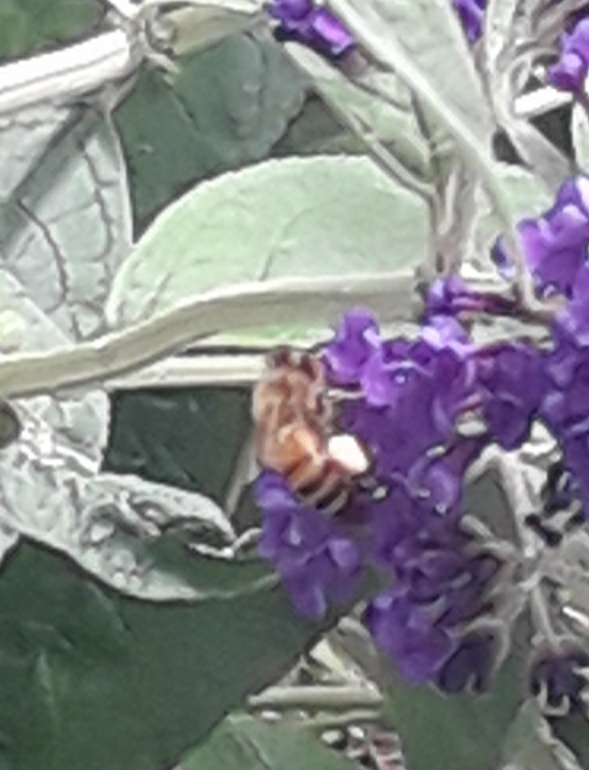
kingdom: Animalia
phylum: Arthropoda
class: Insecta
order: Hymenoptera
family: Apidae
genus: Apis
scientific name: Apis mellifera
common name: Honey bee
